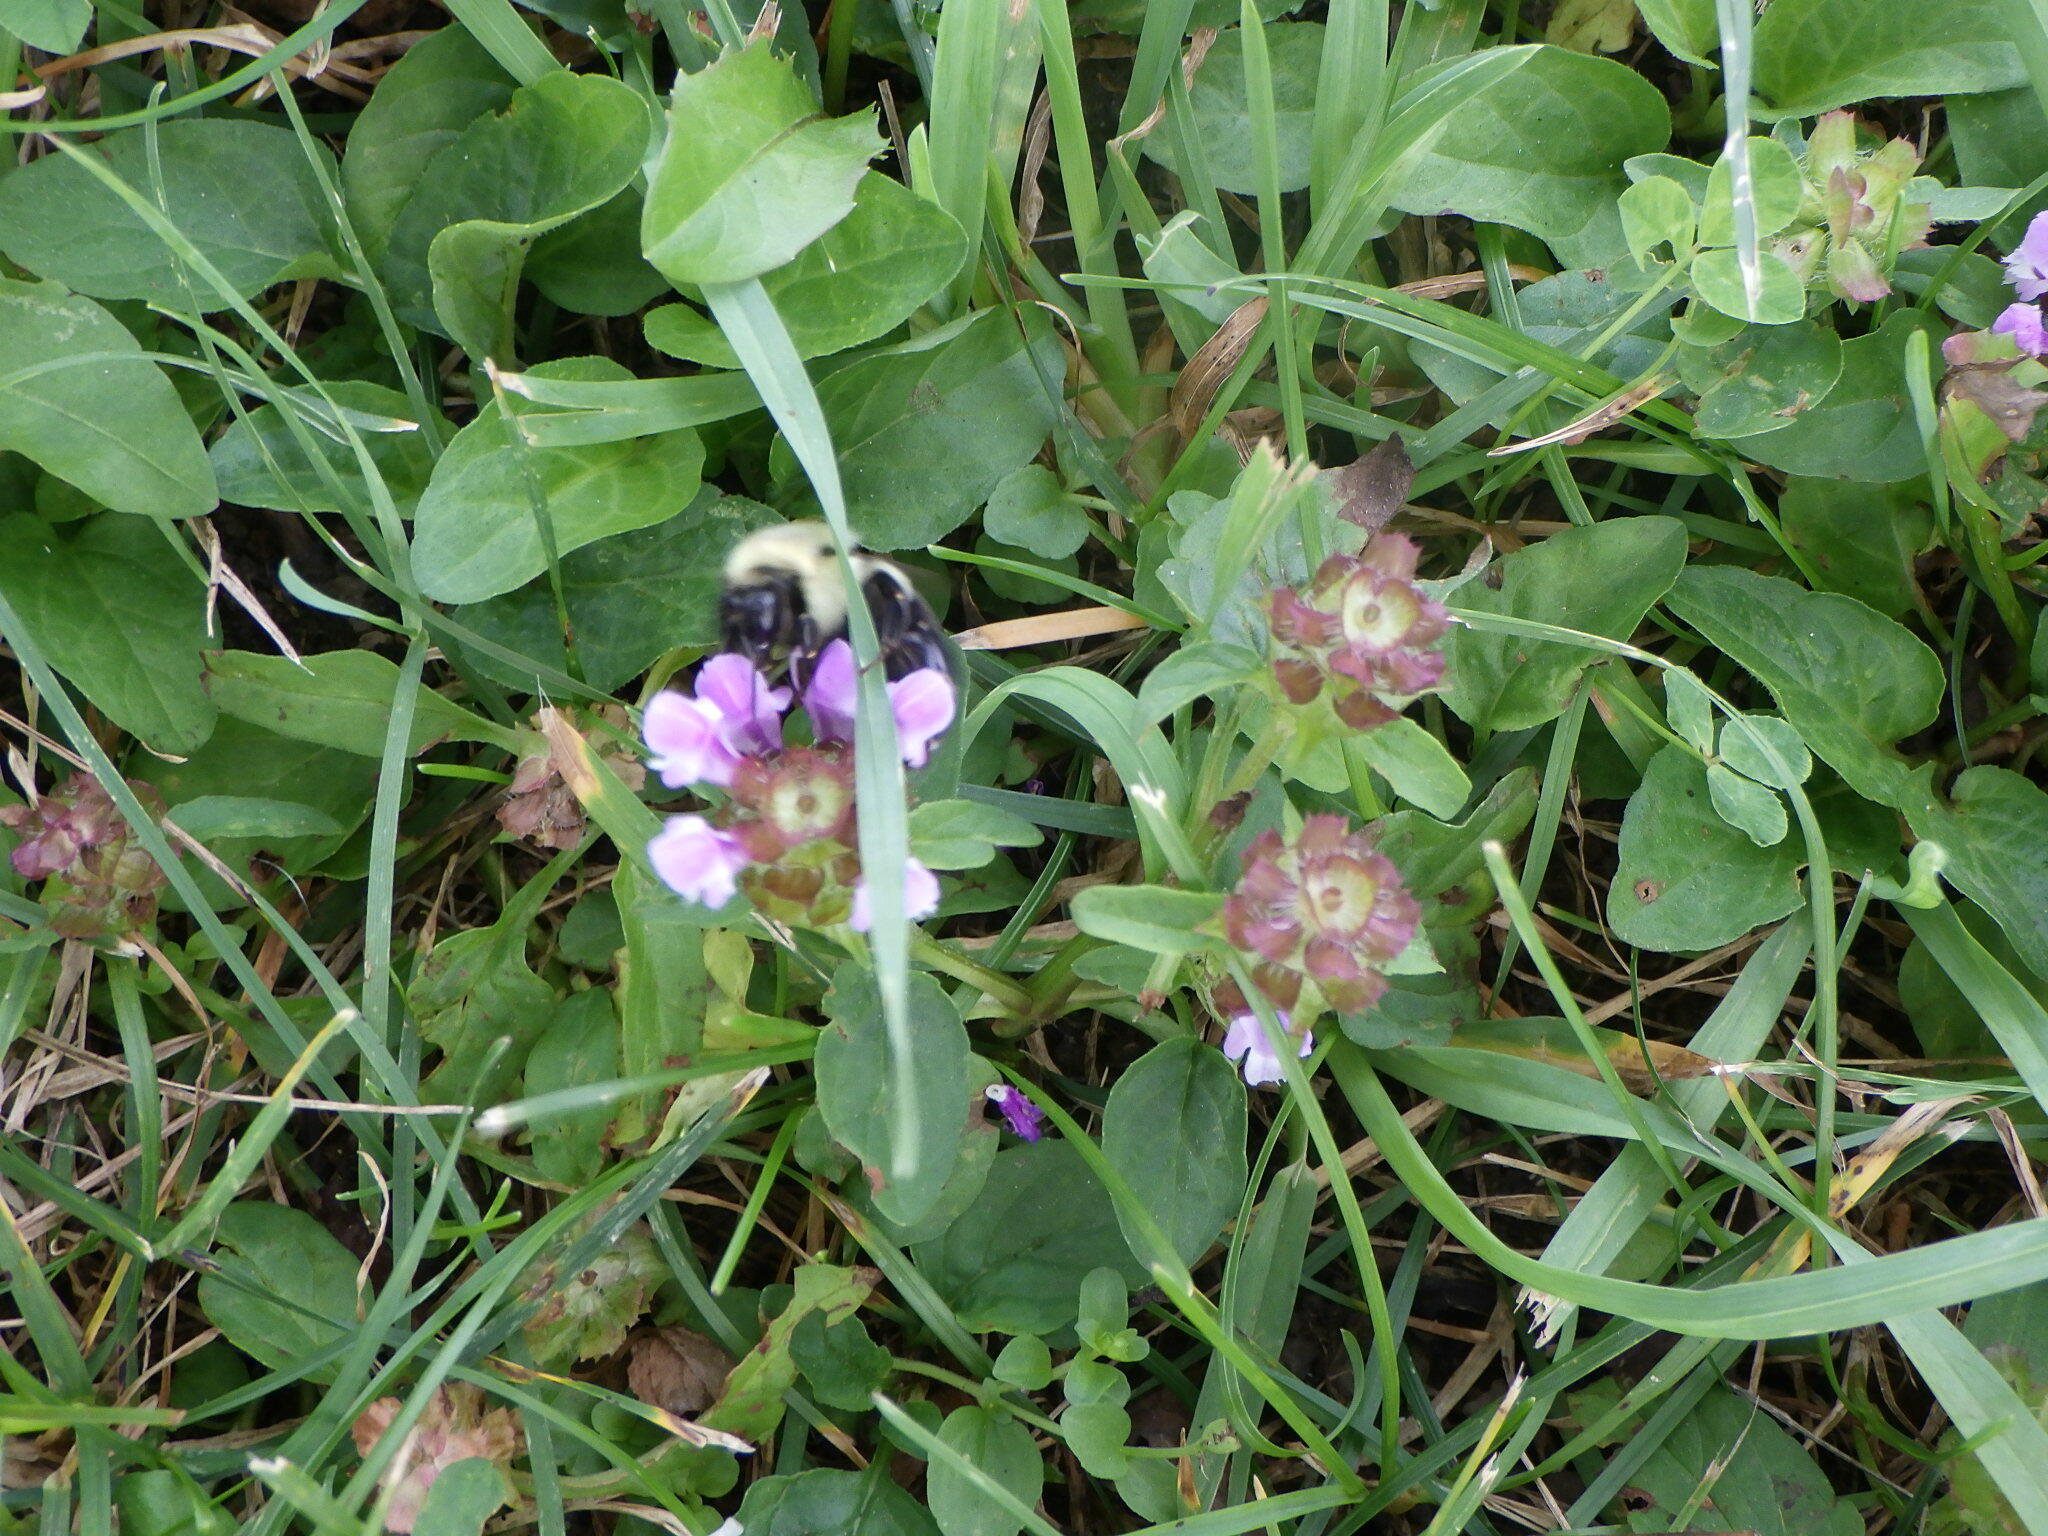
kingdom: Animalia
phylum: Arthropoda
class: Insecta
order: Hymenoptera
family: Apidae
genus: Bombus
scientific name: Bombus impatiens
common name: Common eastern bumble bee
